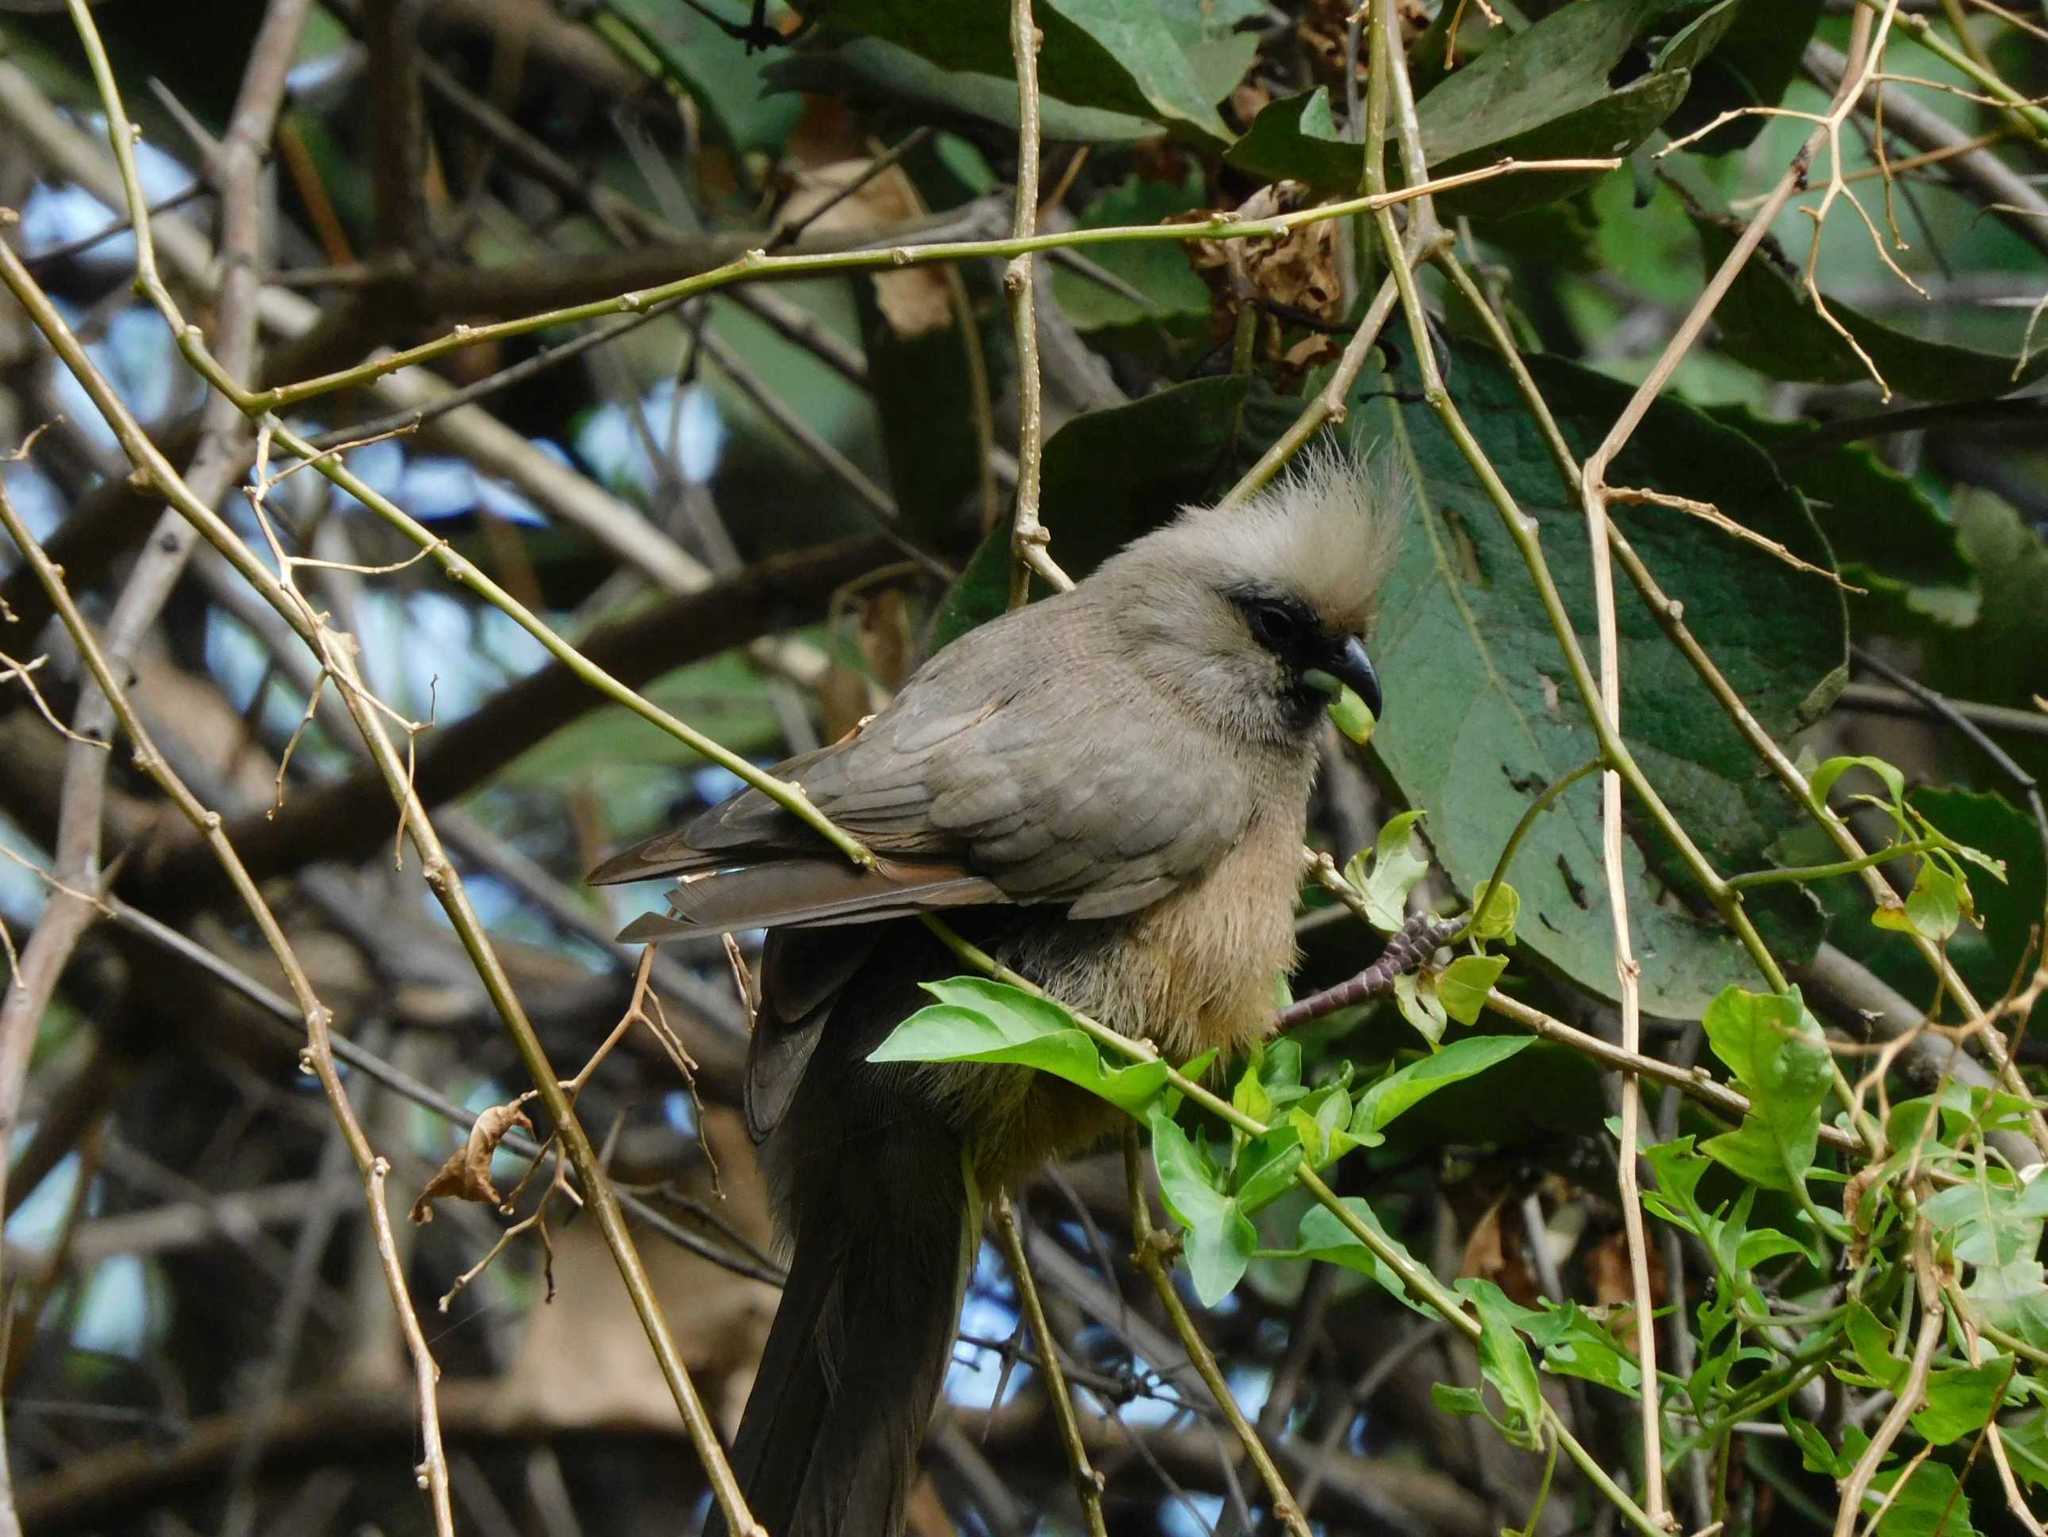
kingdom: Animalia
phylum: Chordata
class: Aves
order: Coliiformes
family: Coliidae
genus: Colius
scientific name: Colius striatus
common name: Speckled mousebird
